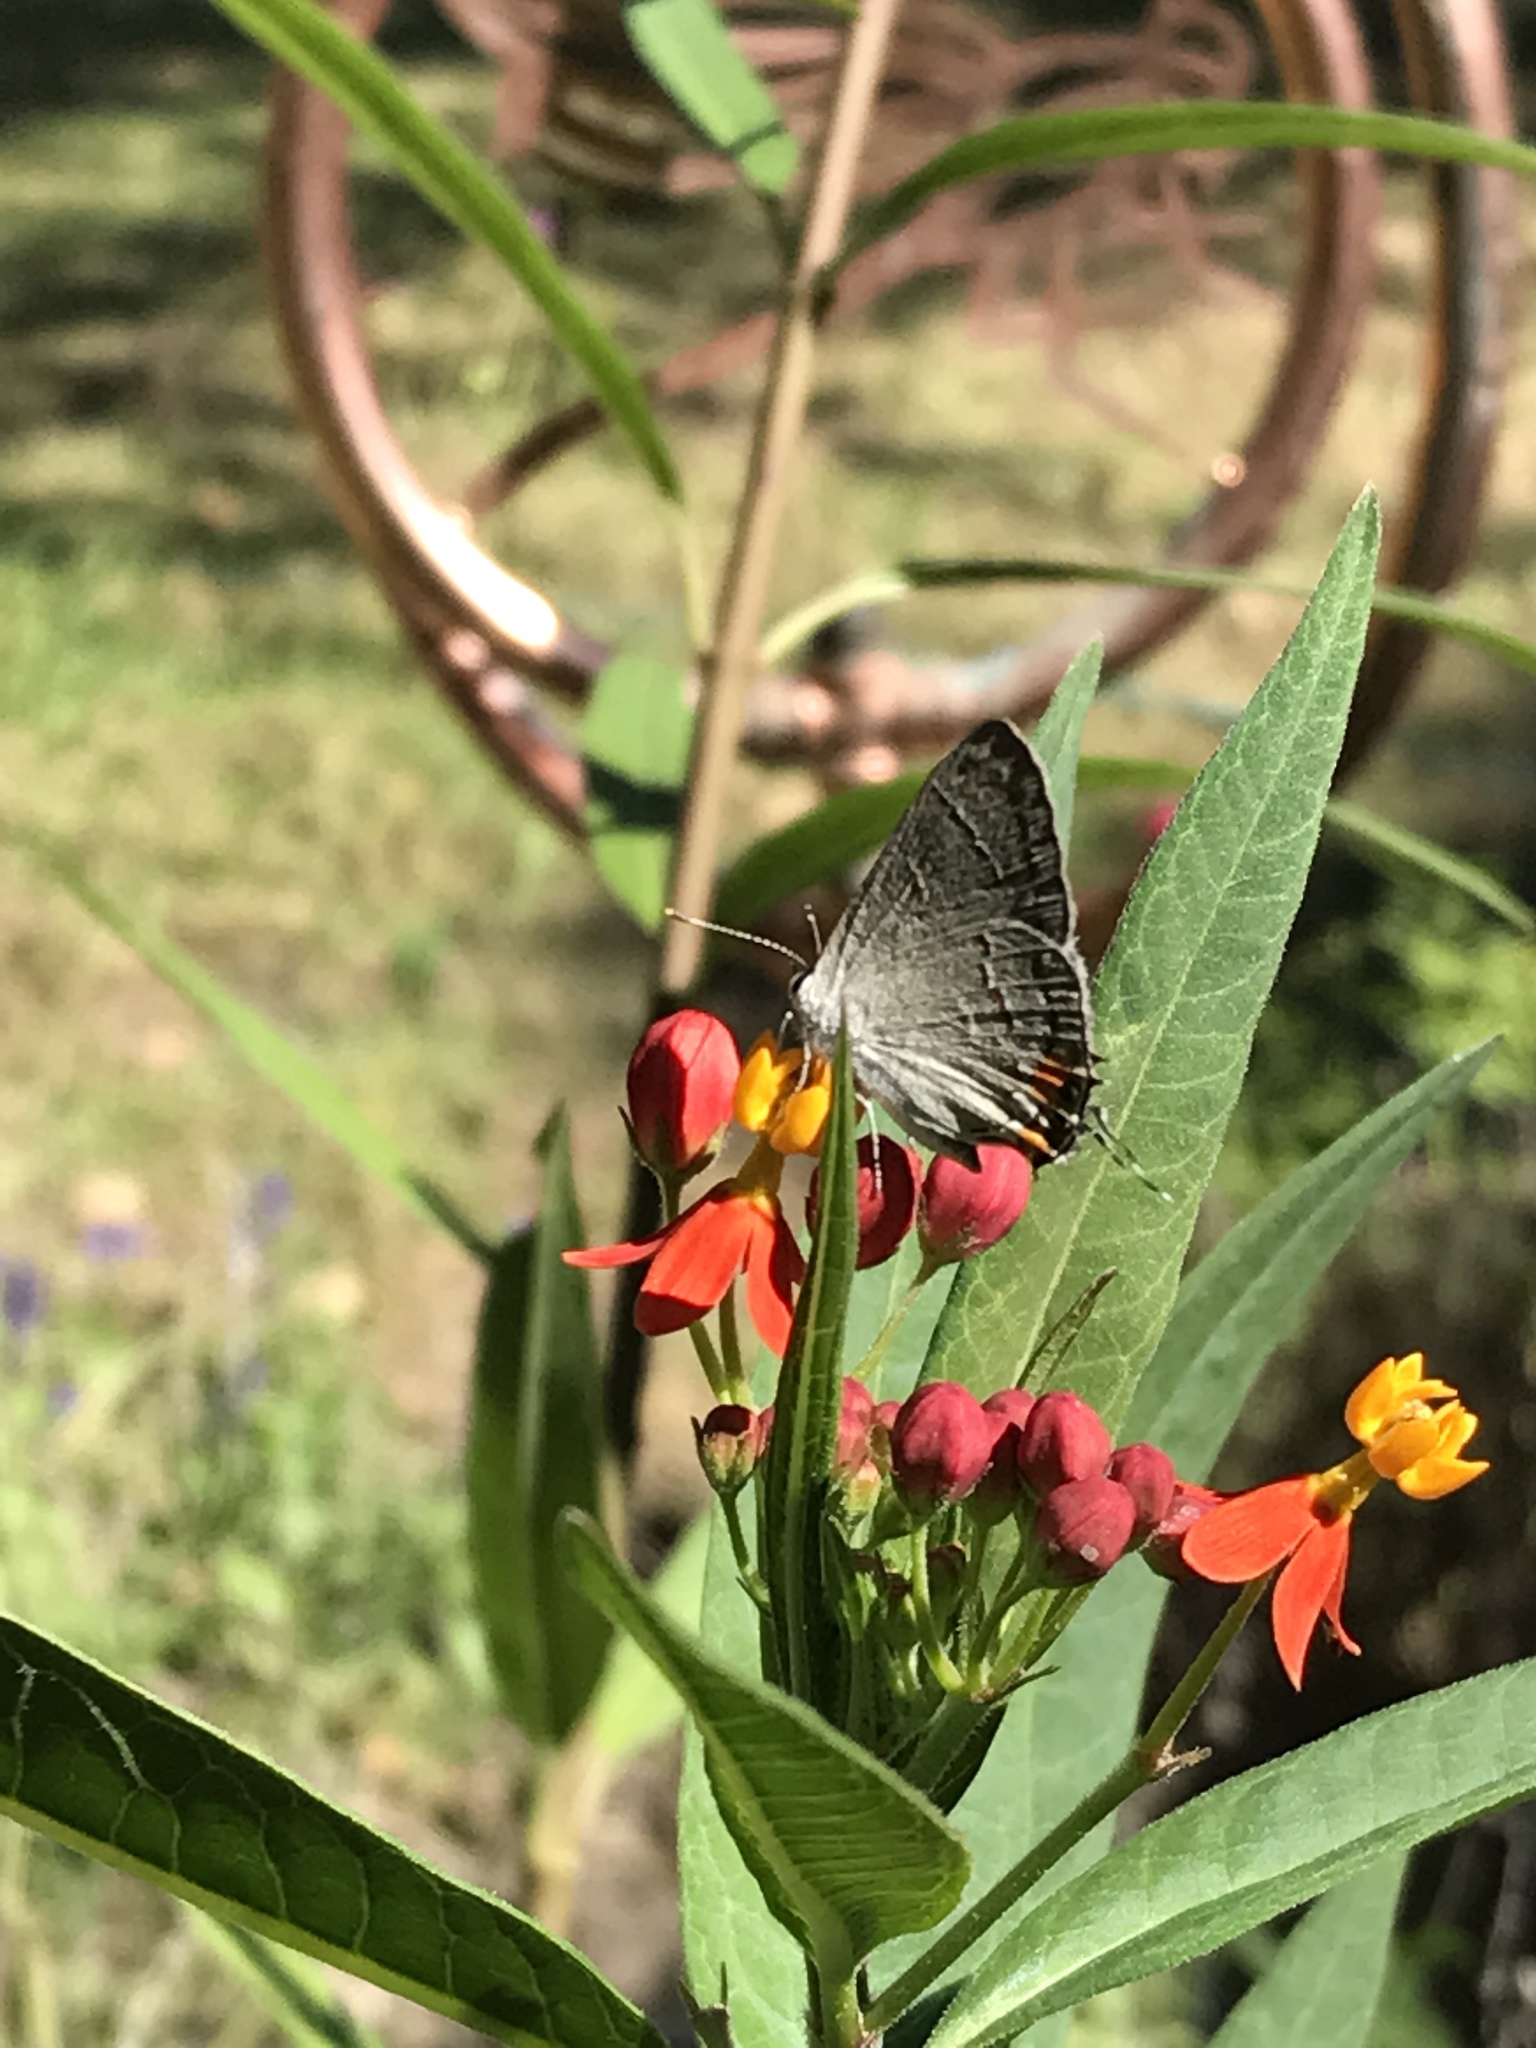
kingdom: Animalia
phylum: Arthropoda
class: Insecta
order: Lepidoptera
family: Lycaenidae
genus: Strymon
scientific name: Strymon melinus
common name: Gray hairstreak
